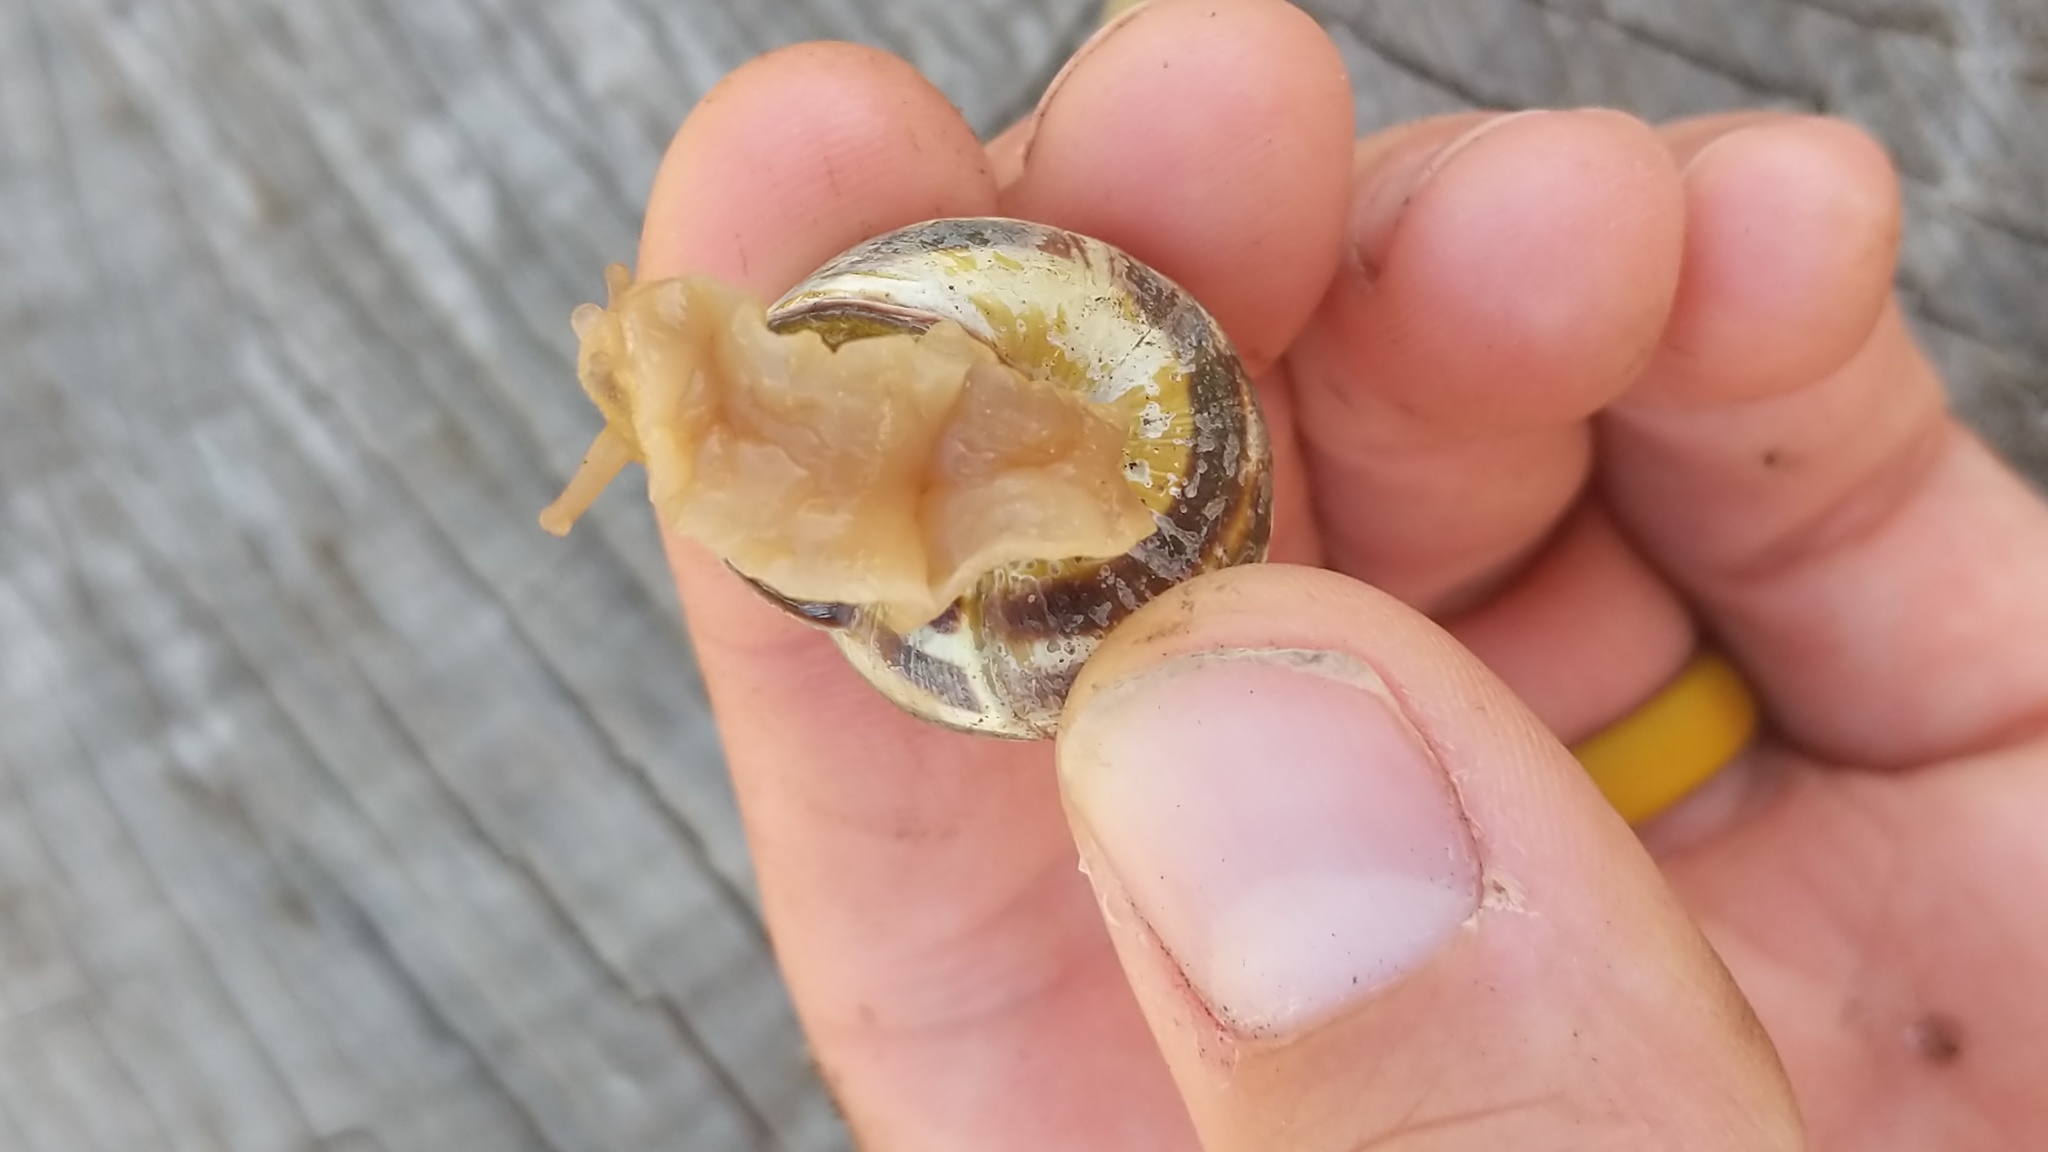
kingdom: Animalia
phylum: Mollusca
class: Gastropoda
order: Stylommatophora
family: Helicidae
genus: Cepaea
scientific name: Cepaea nemoralis
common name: Grovesnail
